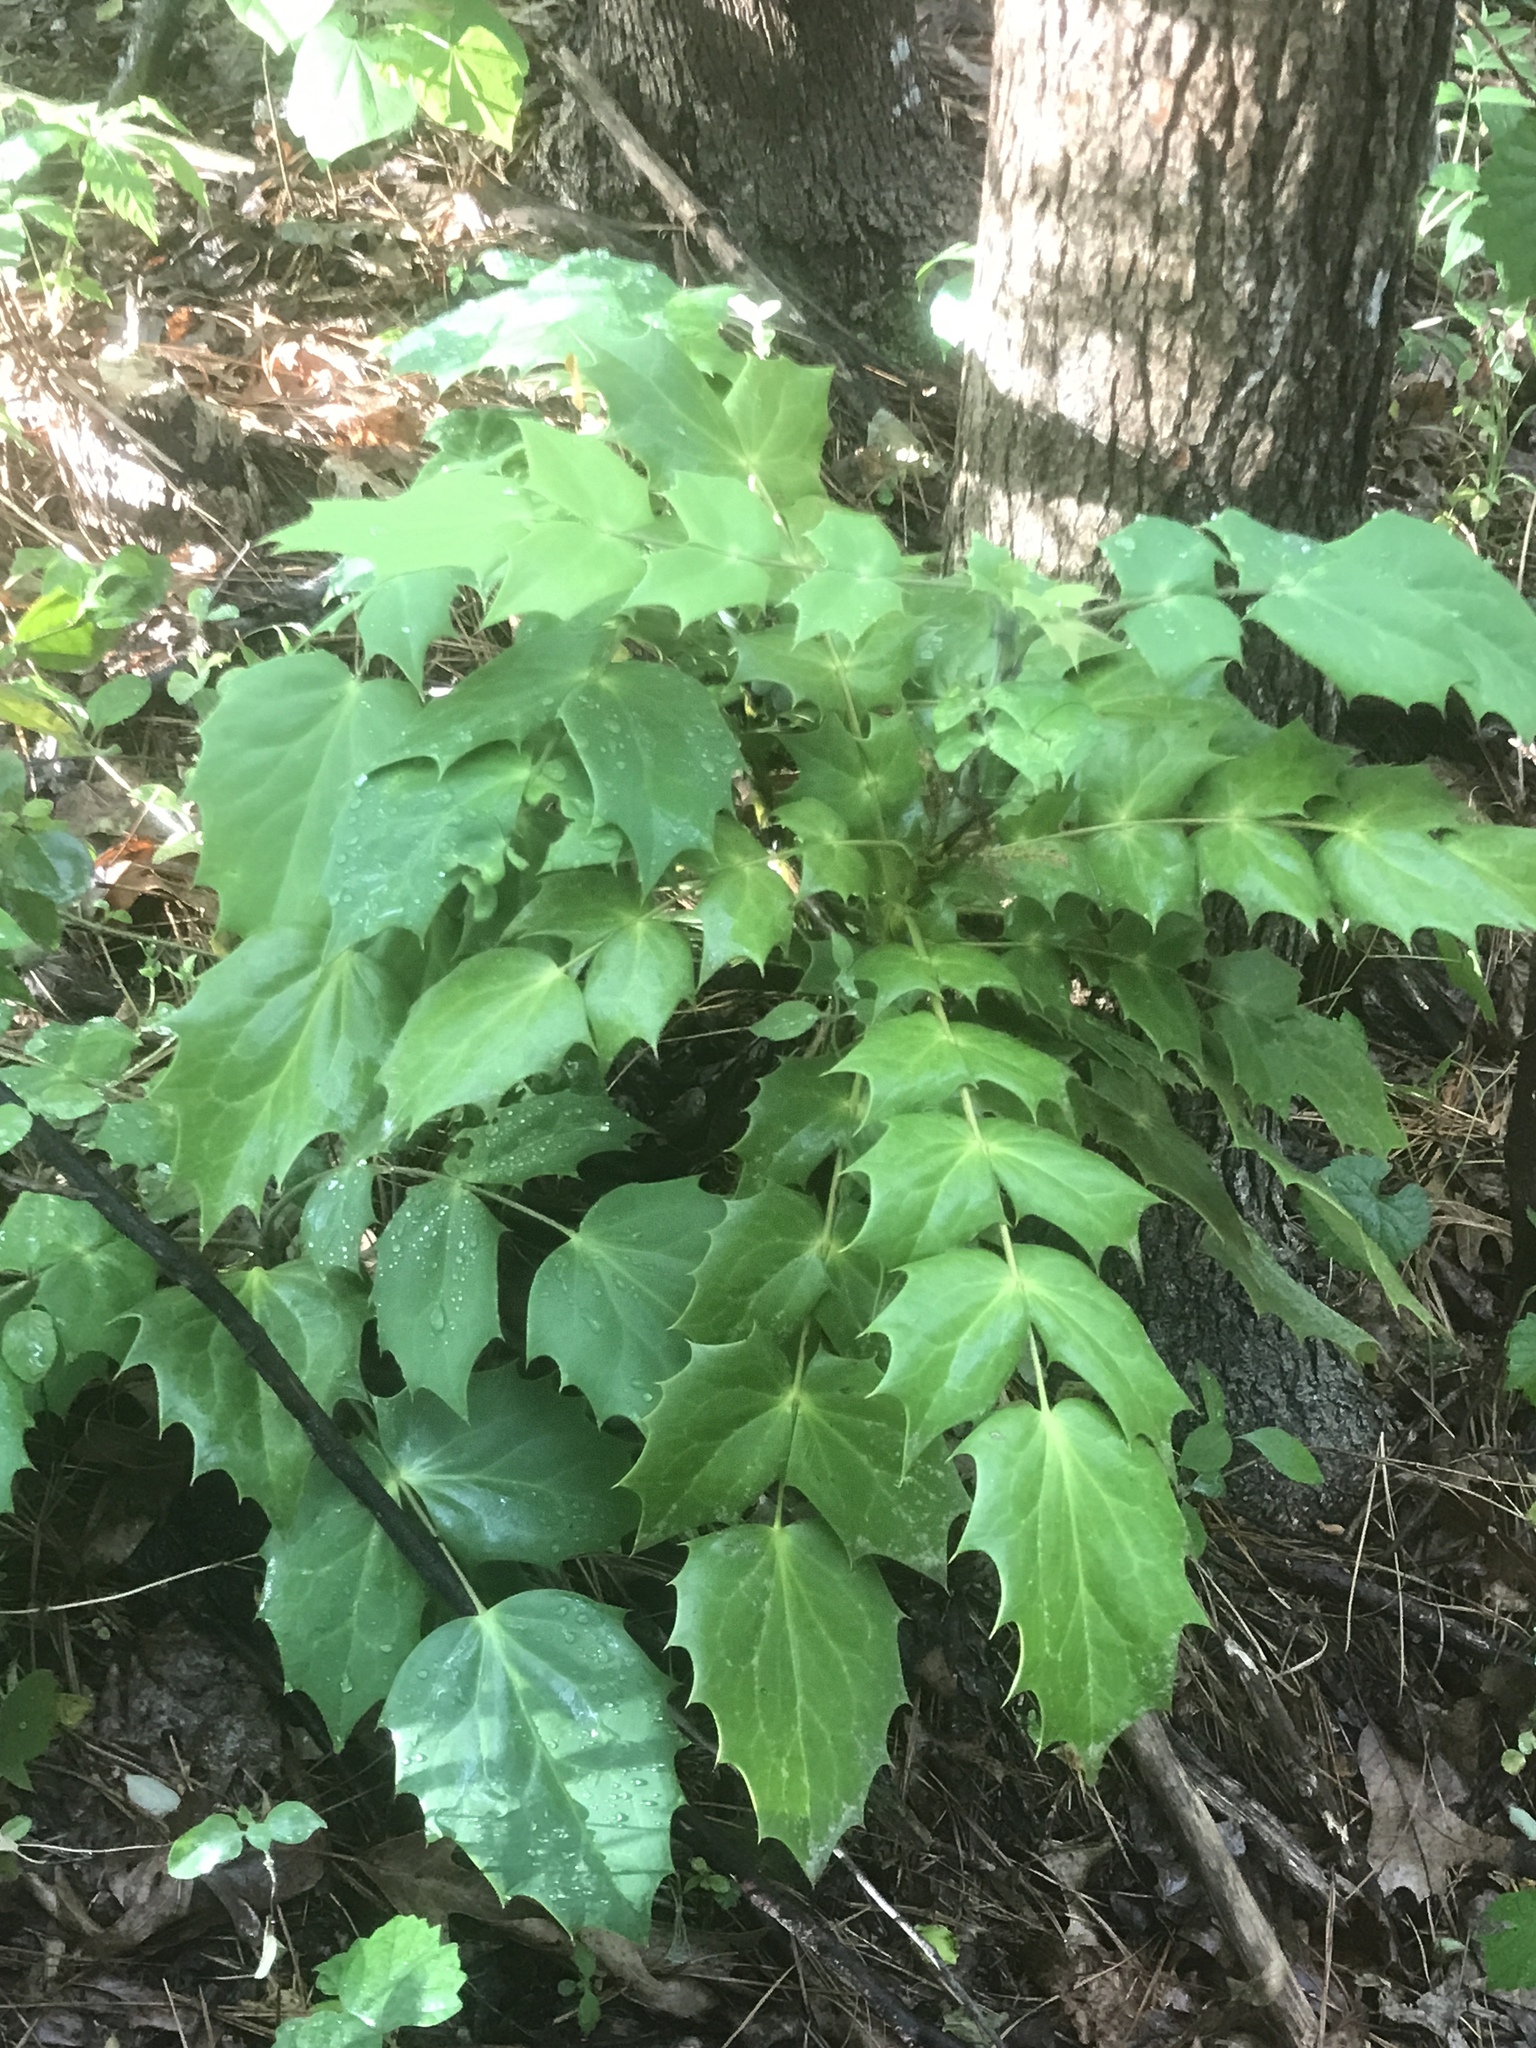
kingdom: Plantae
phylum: Tracheophyta
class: Magnoliopsida
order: Ranunculales
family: Berberidaceae
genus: Mahonia
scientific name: Mahonia bealei
